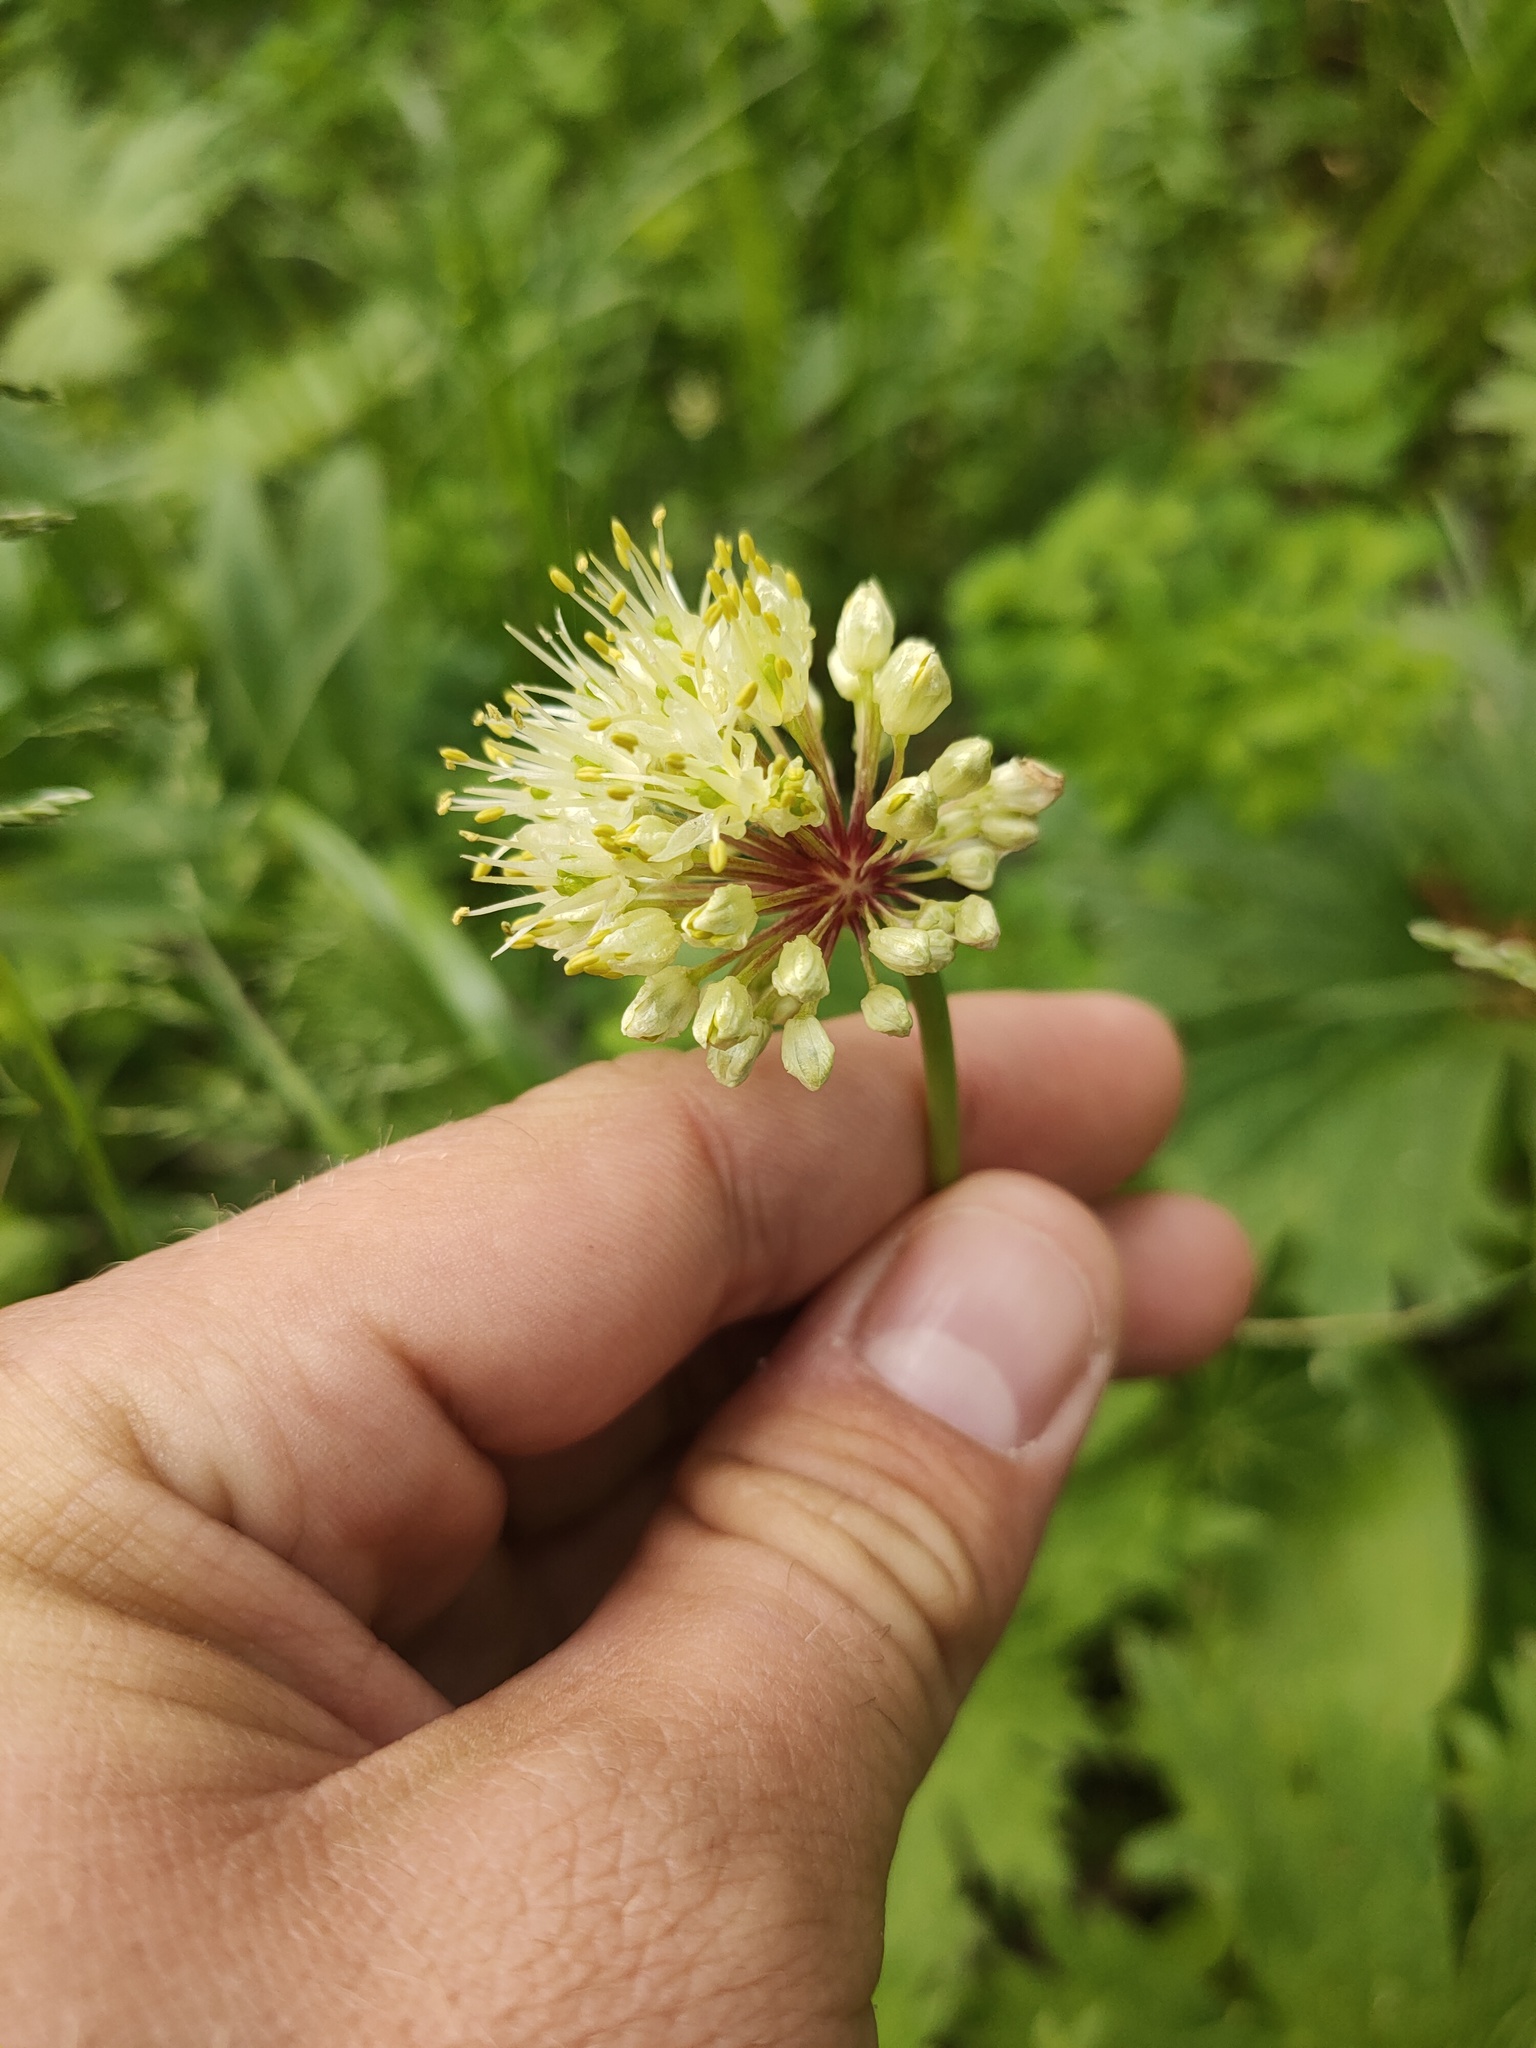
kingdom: Plantae
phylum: Tracheophyta
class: Liliopsida
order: Asparagales
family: Amaryllidaceae
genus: Allium
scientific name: Allium microdictyon
